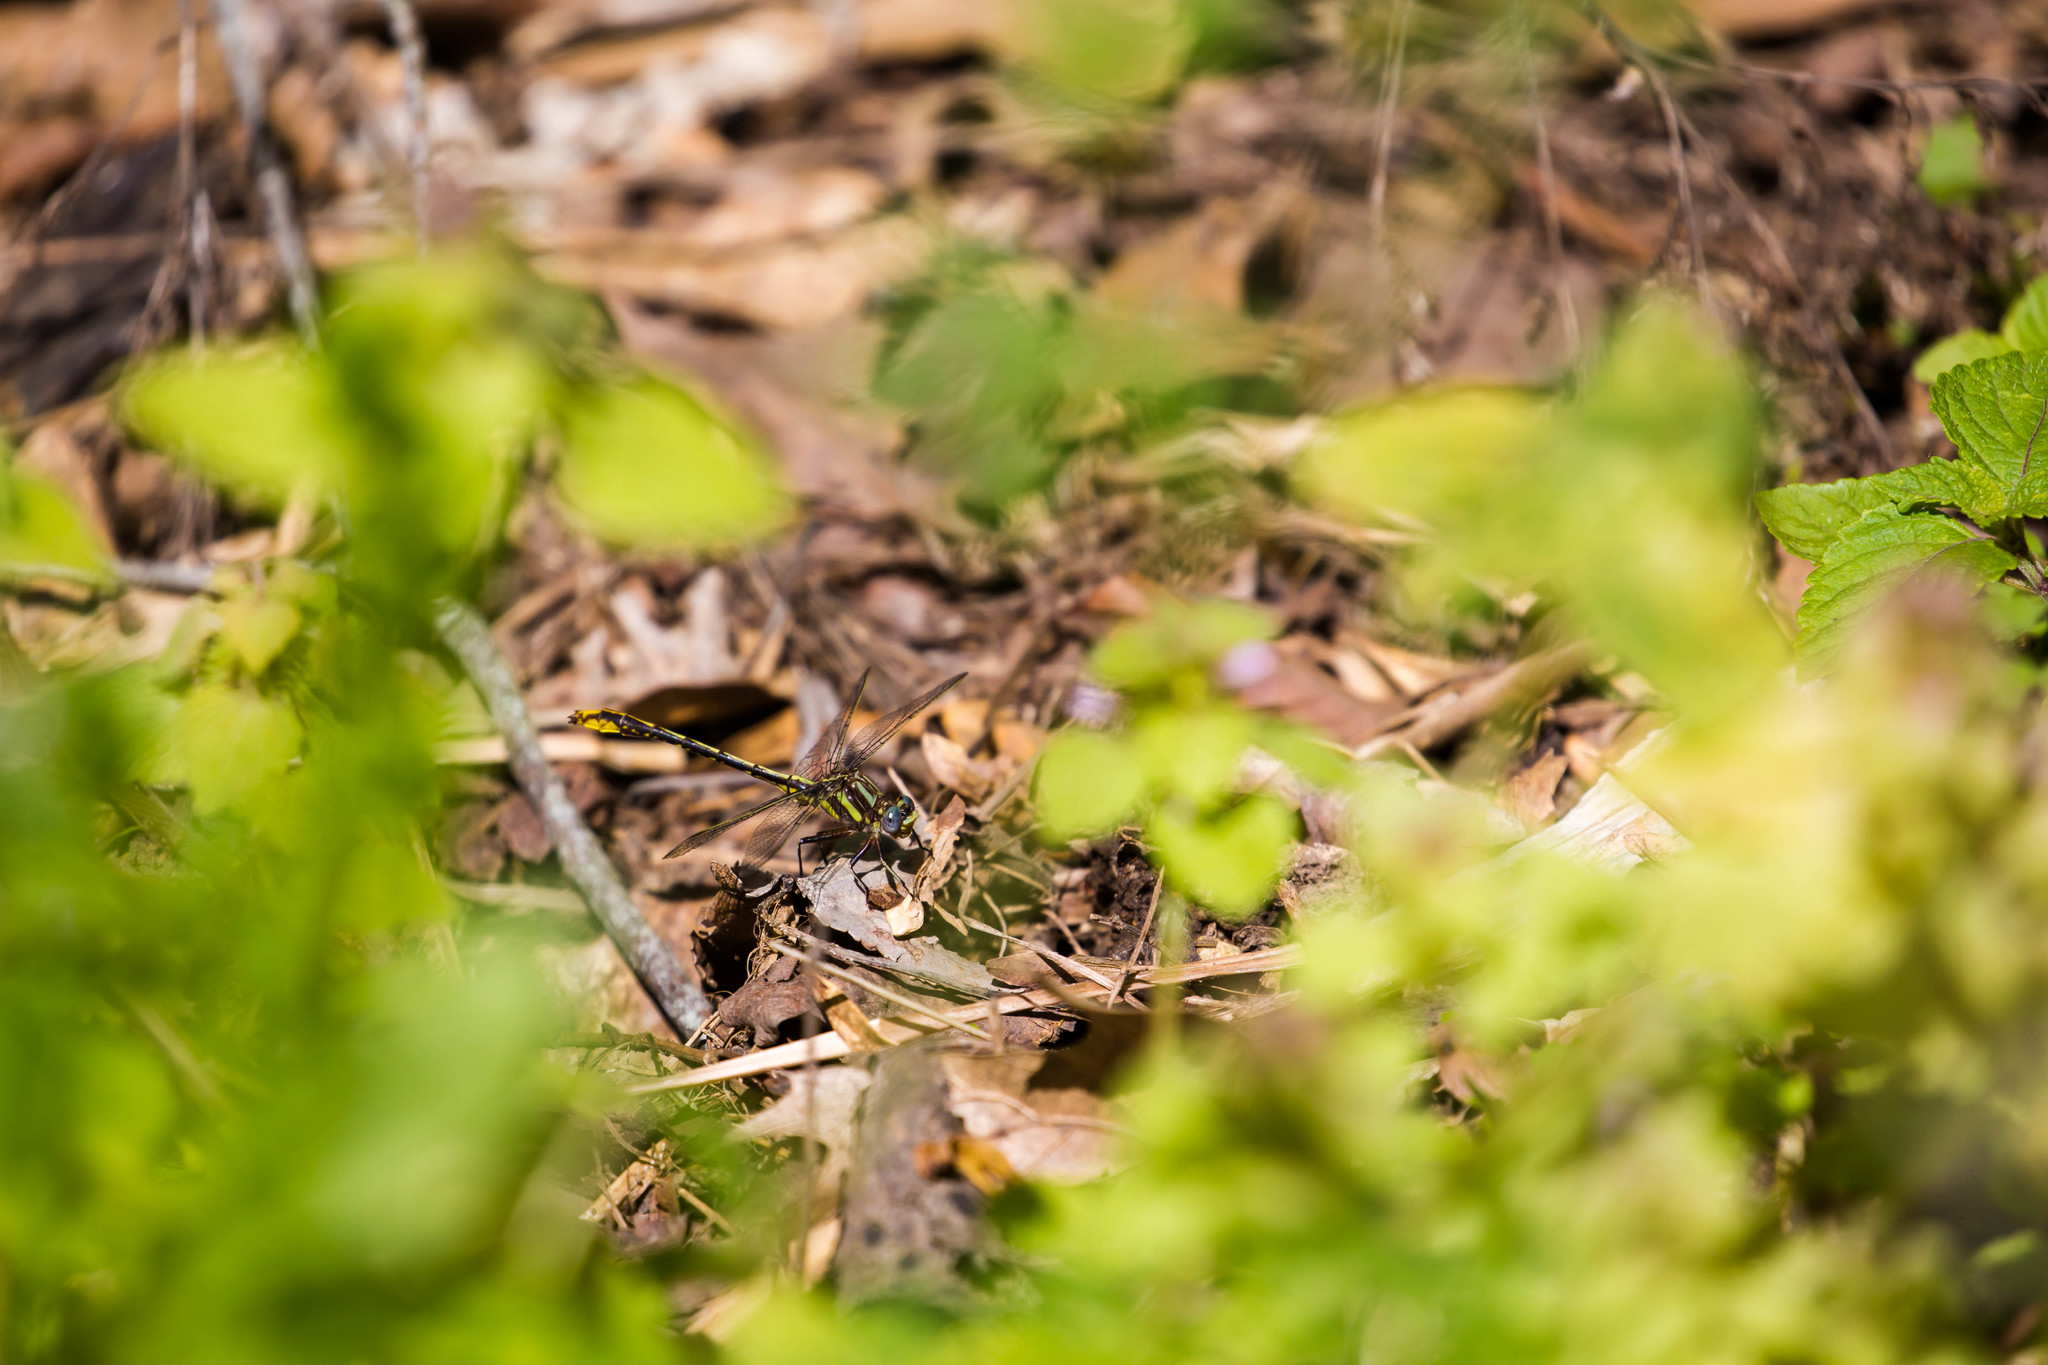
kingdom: Animalia
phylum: Arthropoda
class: Insecta
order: Odonata
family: Gomphidae
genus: Phanogomphus
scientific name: Phanogomphus exilis
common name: Lancet clubtail
